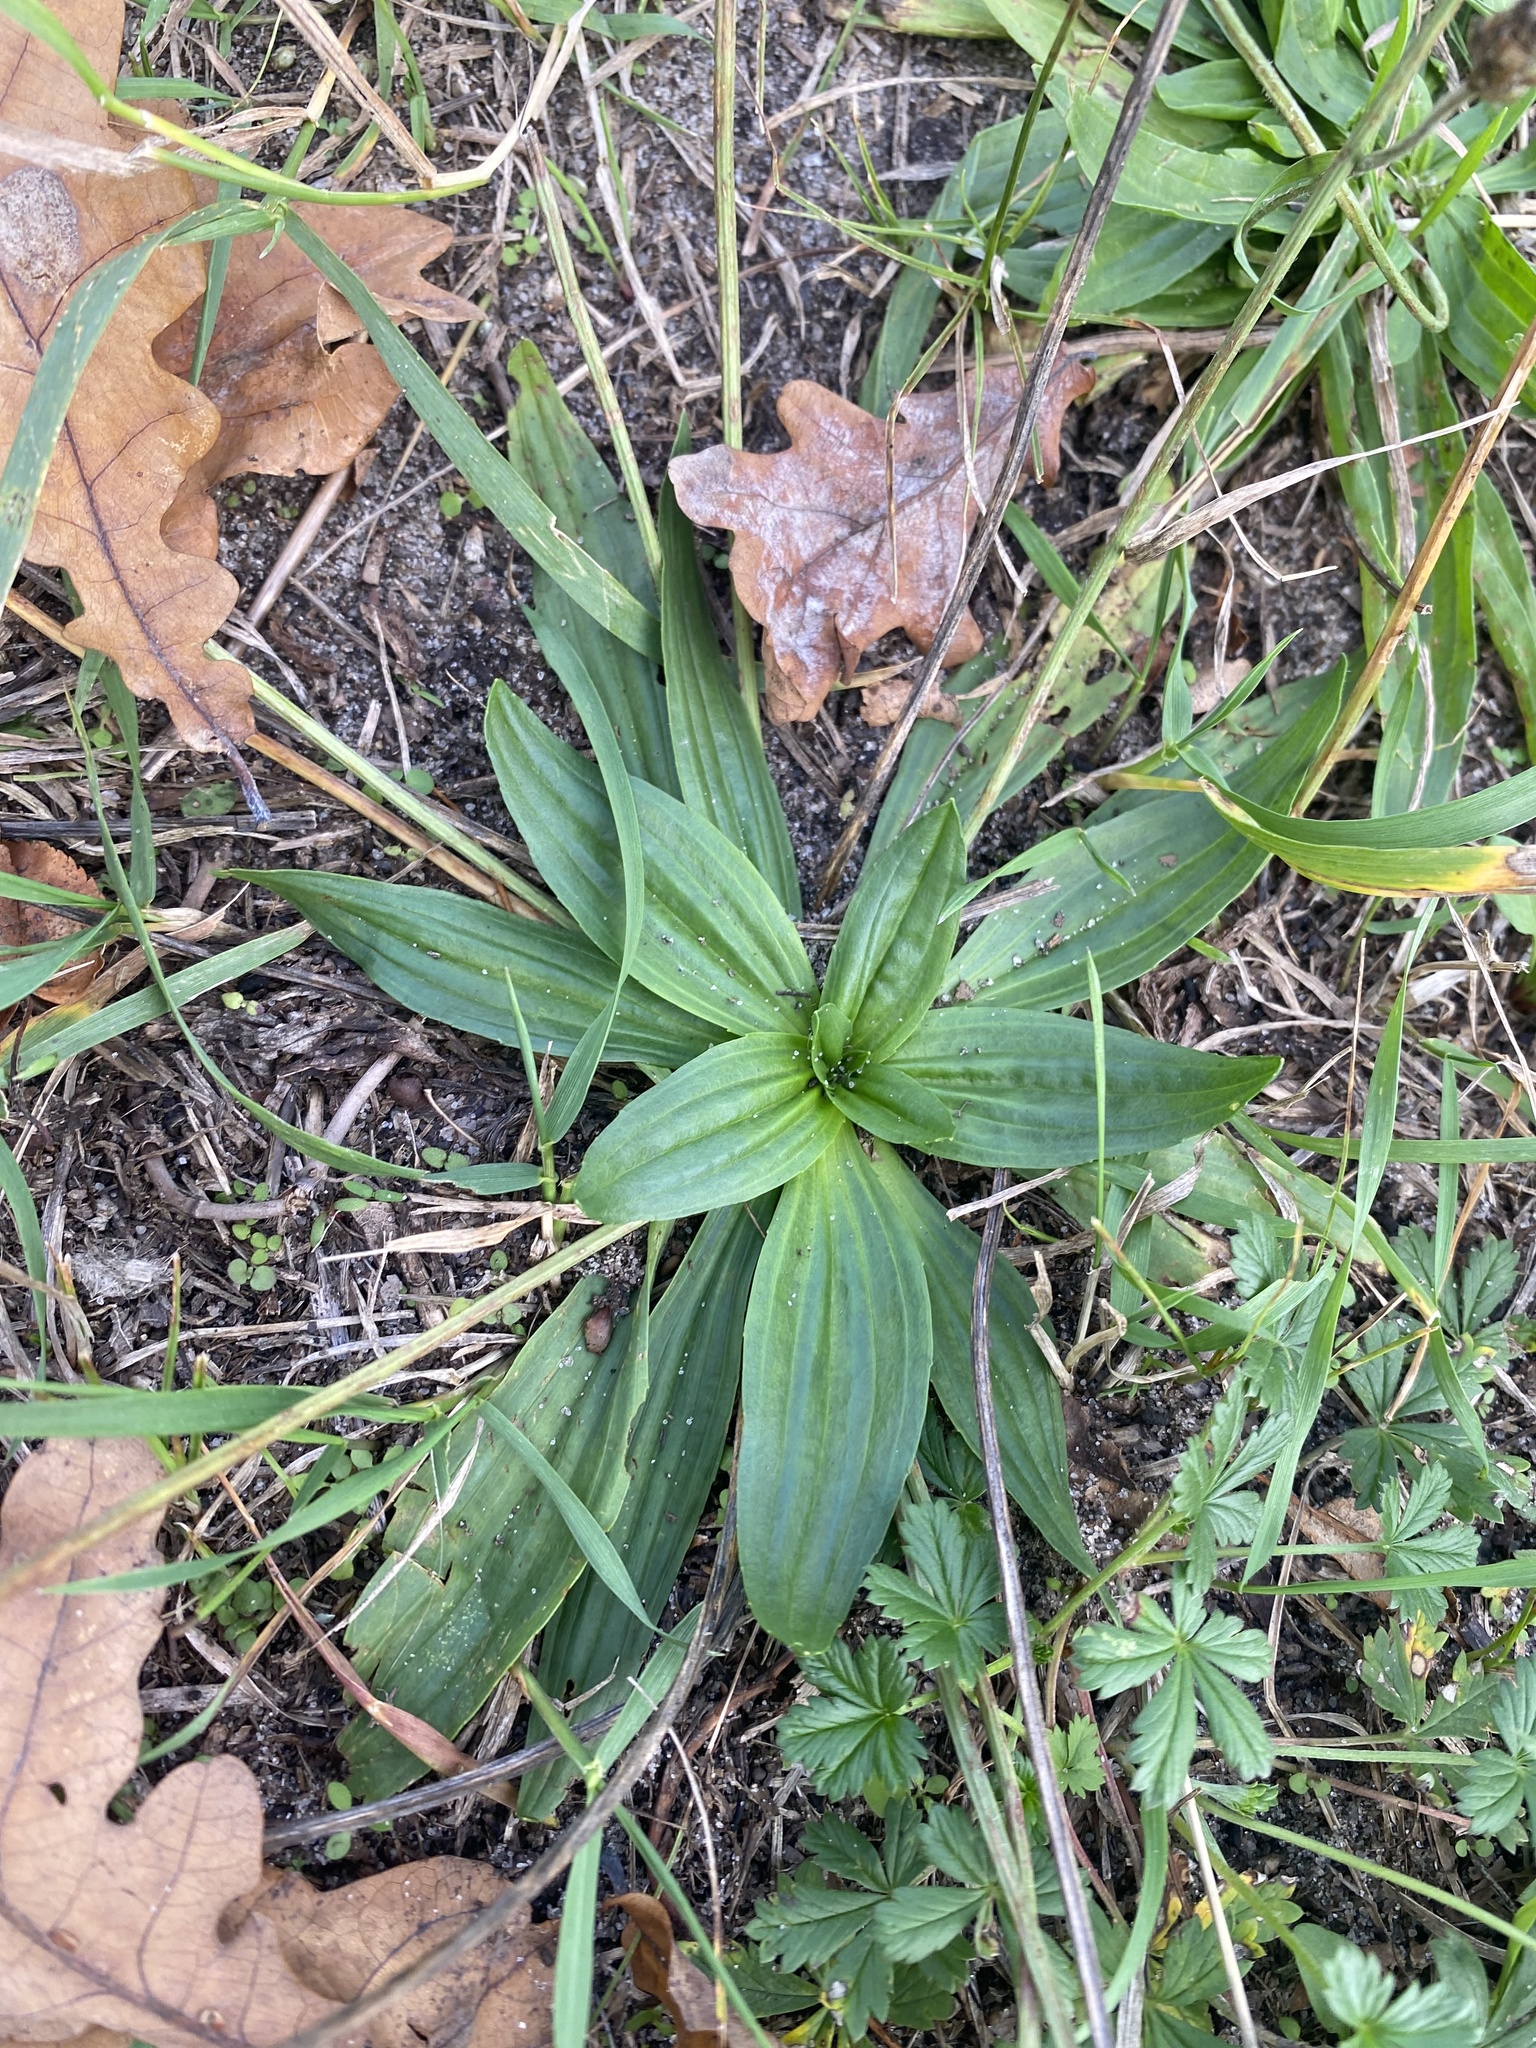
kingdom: Plantae
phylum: Tracheophyta
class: Magnoliopsida
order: Lamiales
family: Plantaginaceae
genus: Plantago
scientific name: Plantago lanceolata
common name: Ribwort plantain
